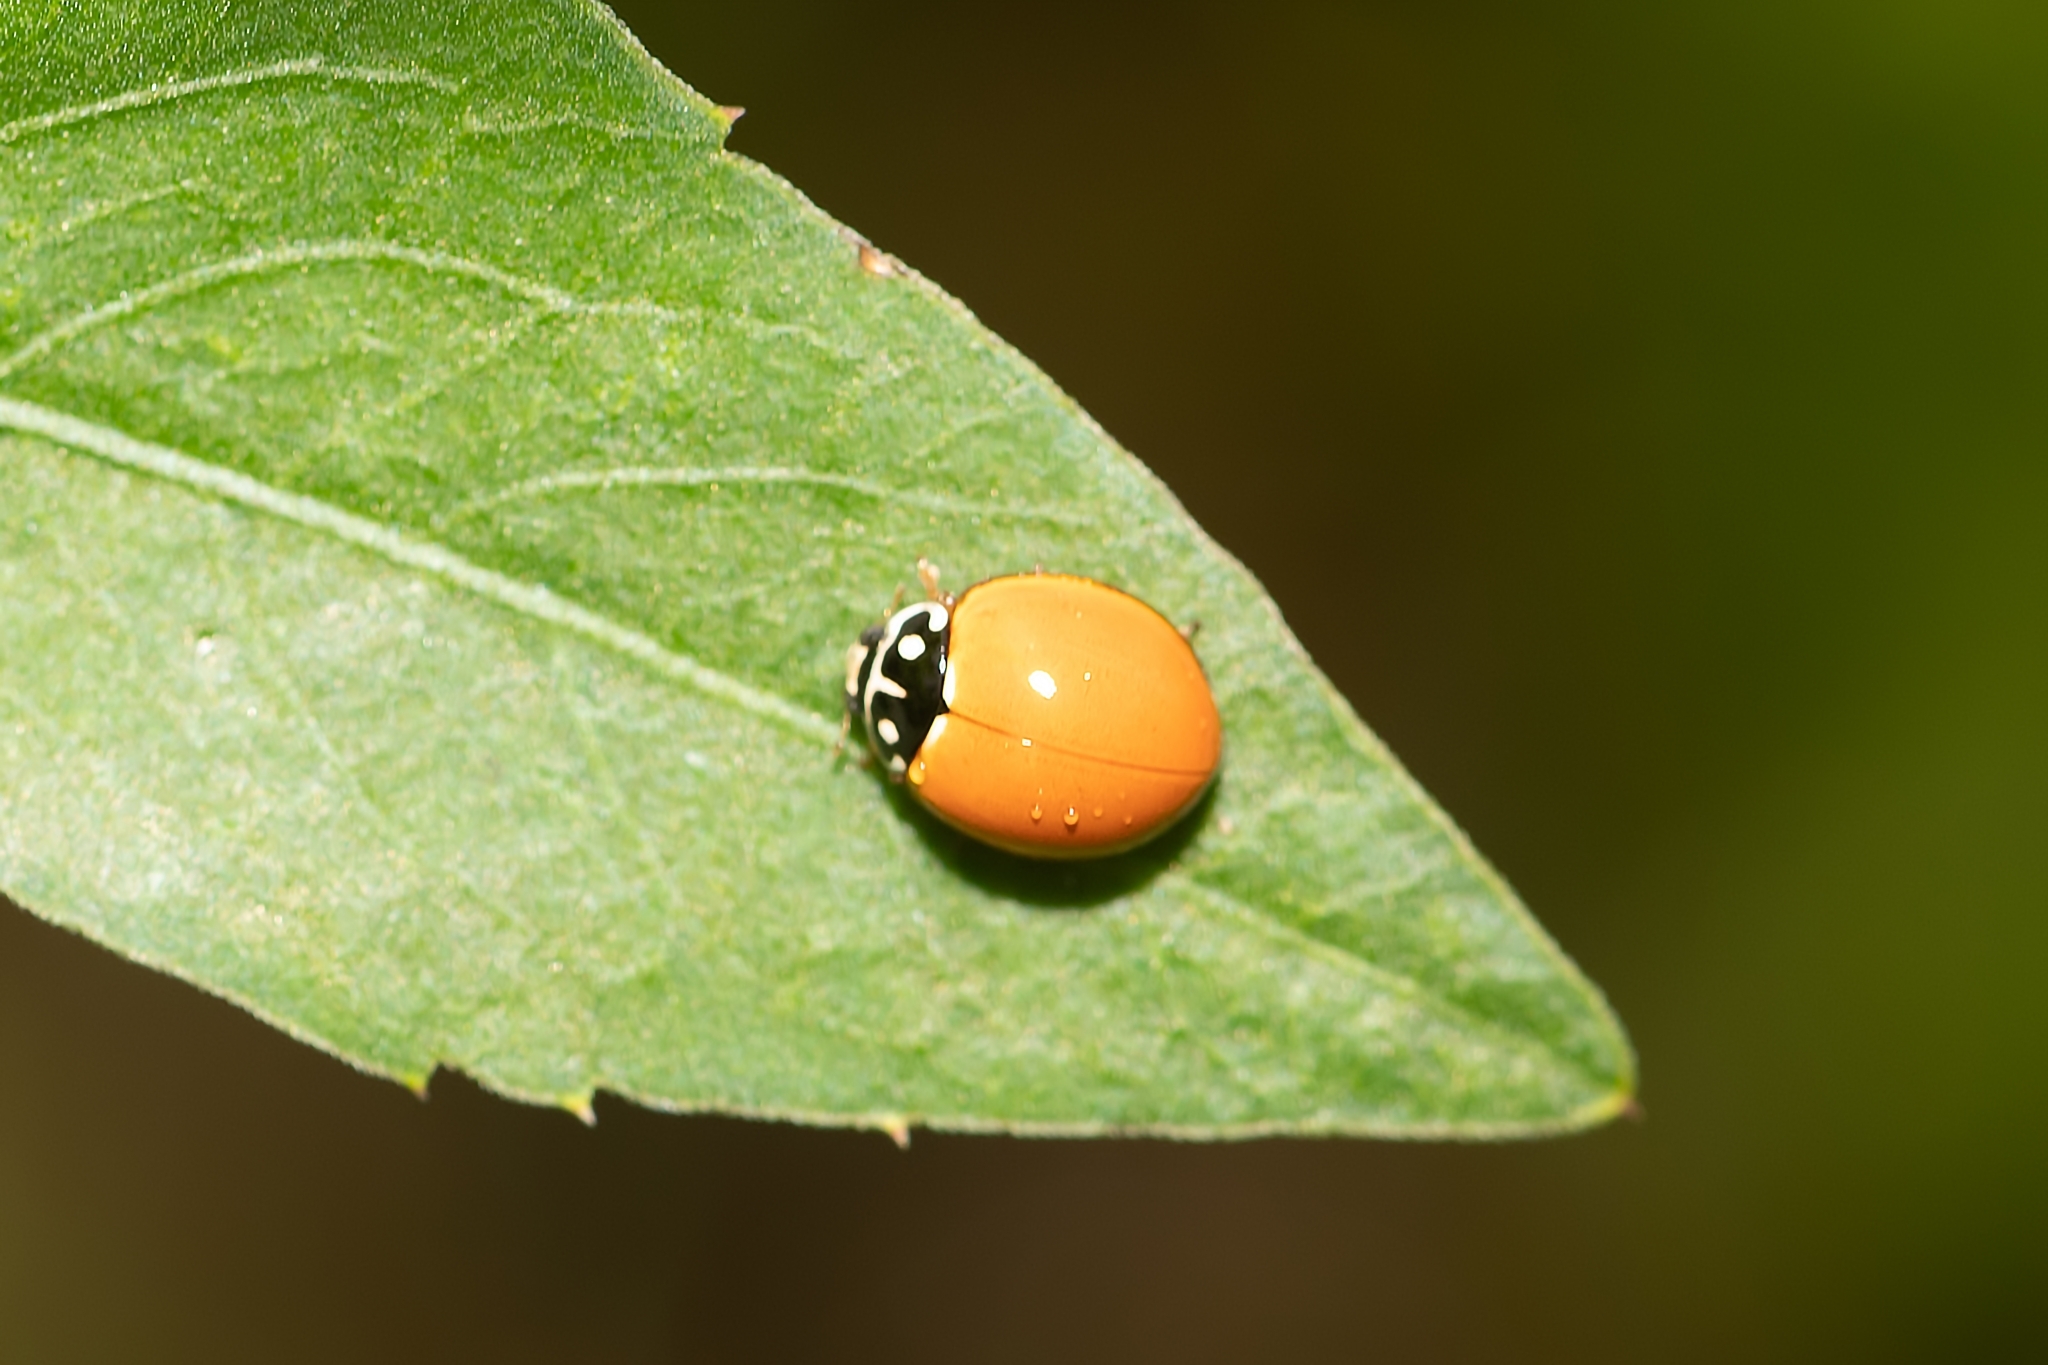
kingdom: Animalia
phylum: Arthropoda
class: Insecta
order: Coleoptera
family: Coccinellidae
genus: Cycloneda
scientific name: Cycloneda sanguinea
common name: Ladybird beetle
